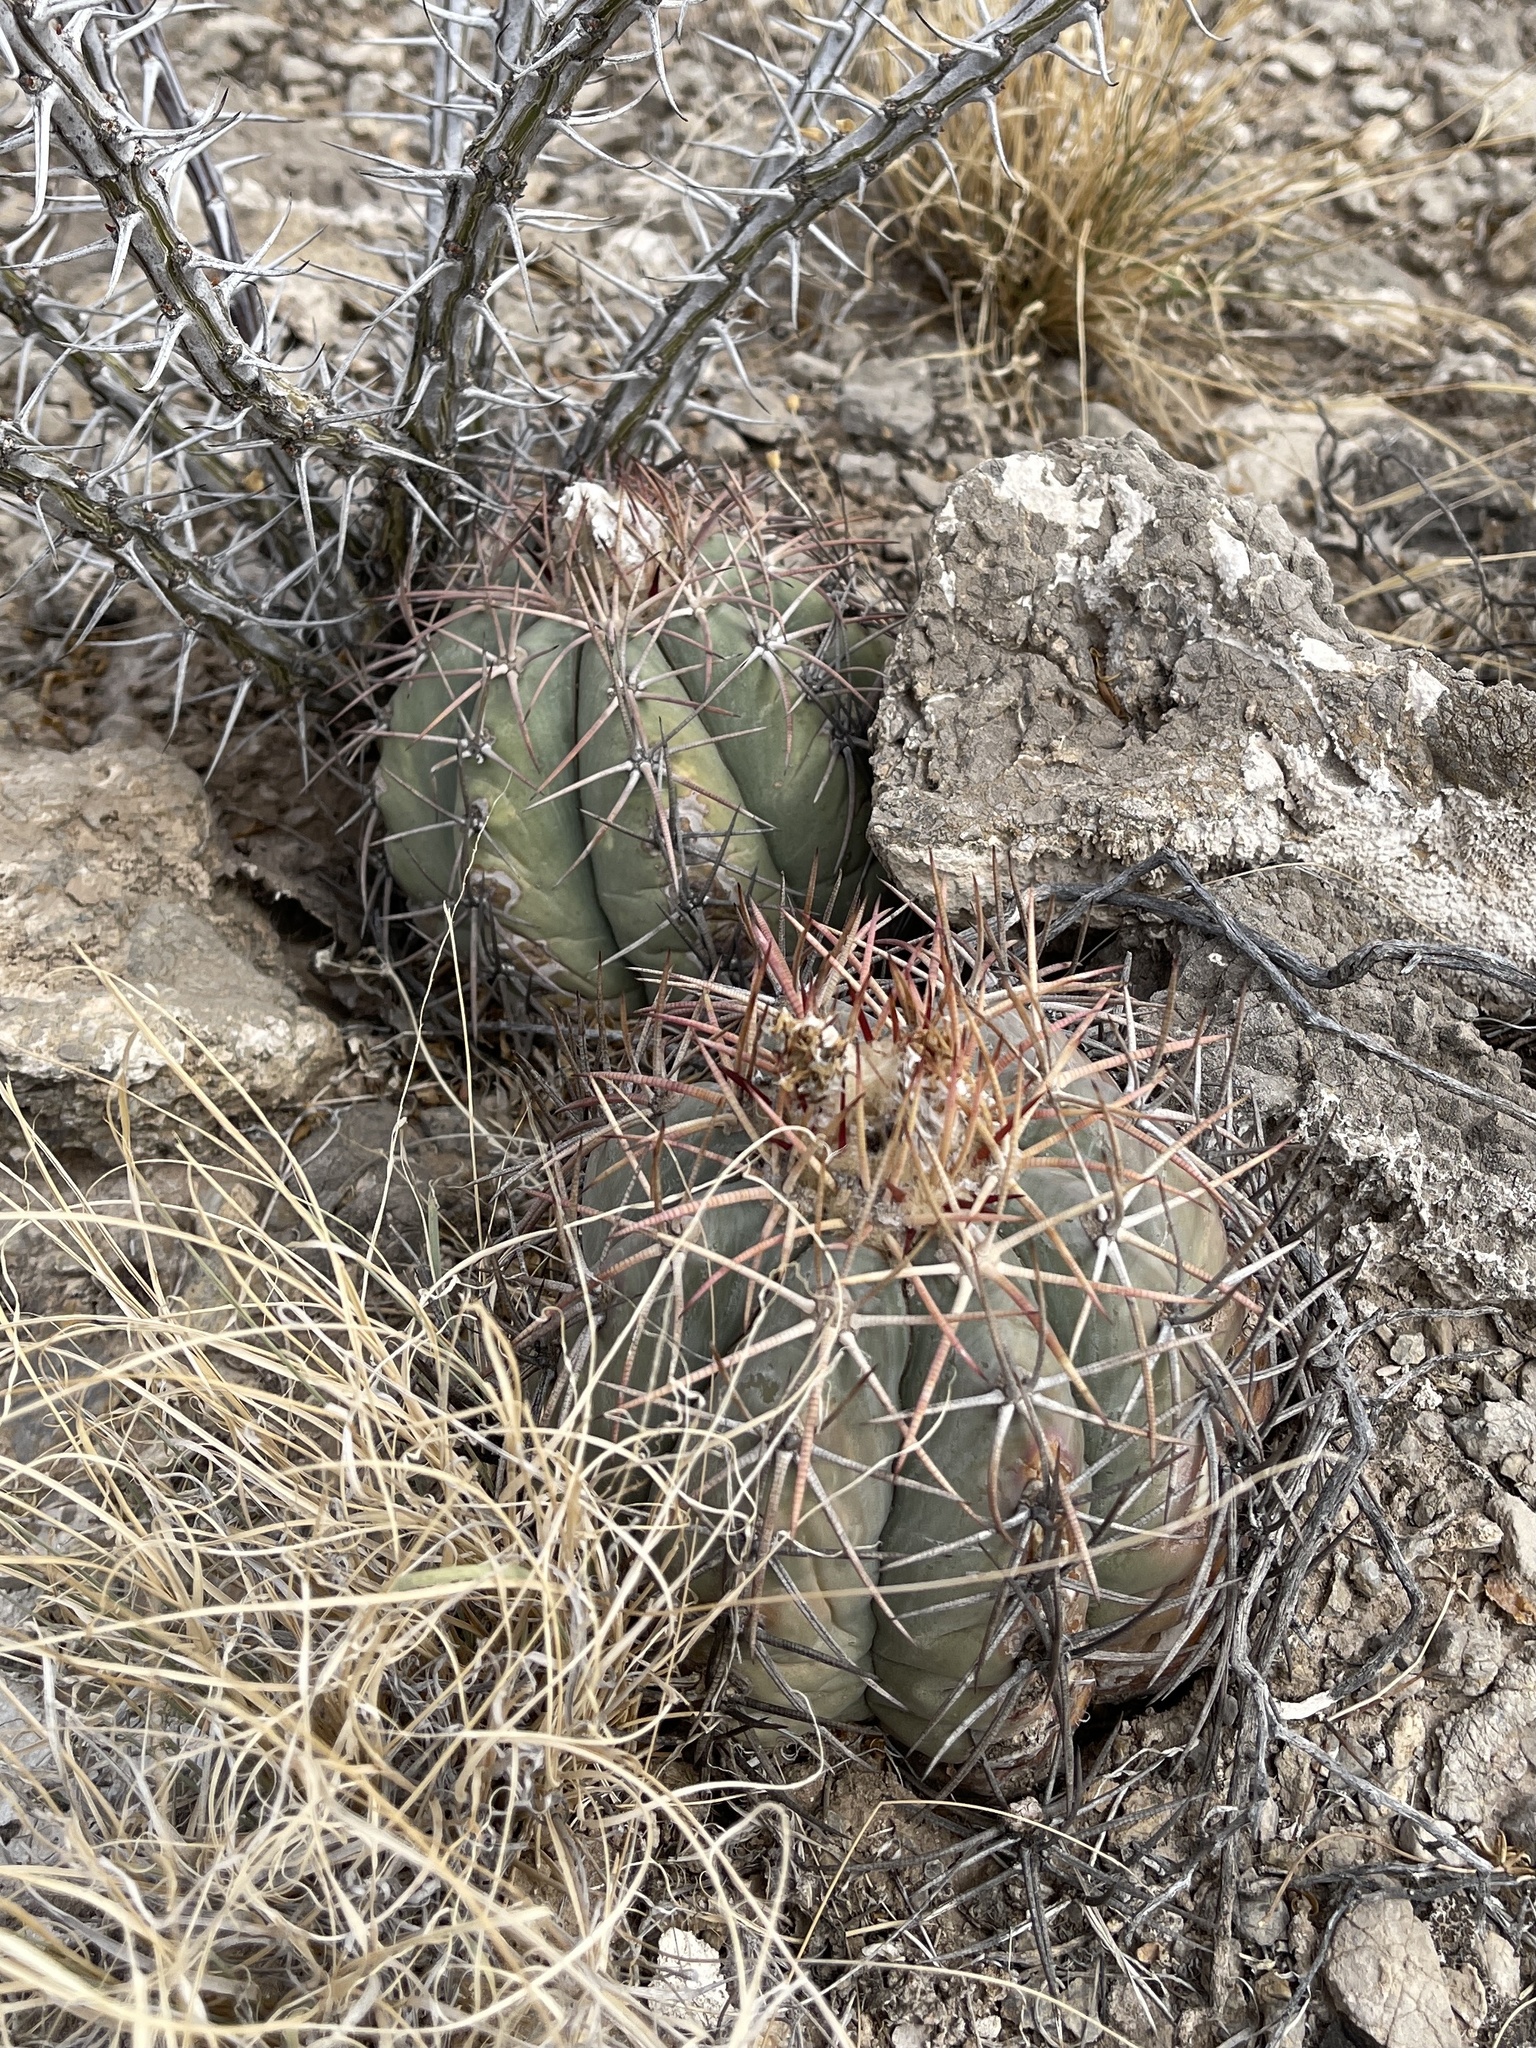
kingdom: Plantae
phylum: Tracheophyta
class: Magnoliopsida
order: Caryophyllales
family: Cactaceae
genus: Echinocactus
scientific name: Echinocactus horizonthalonius
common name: Devilshead
